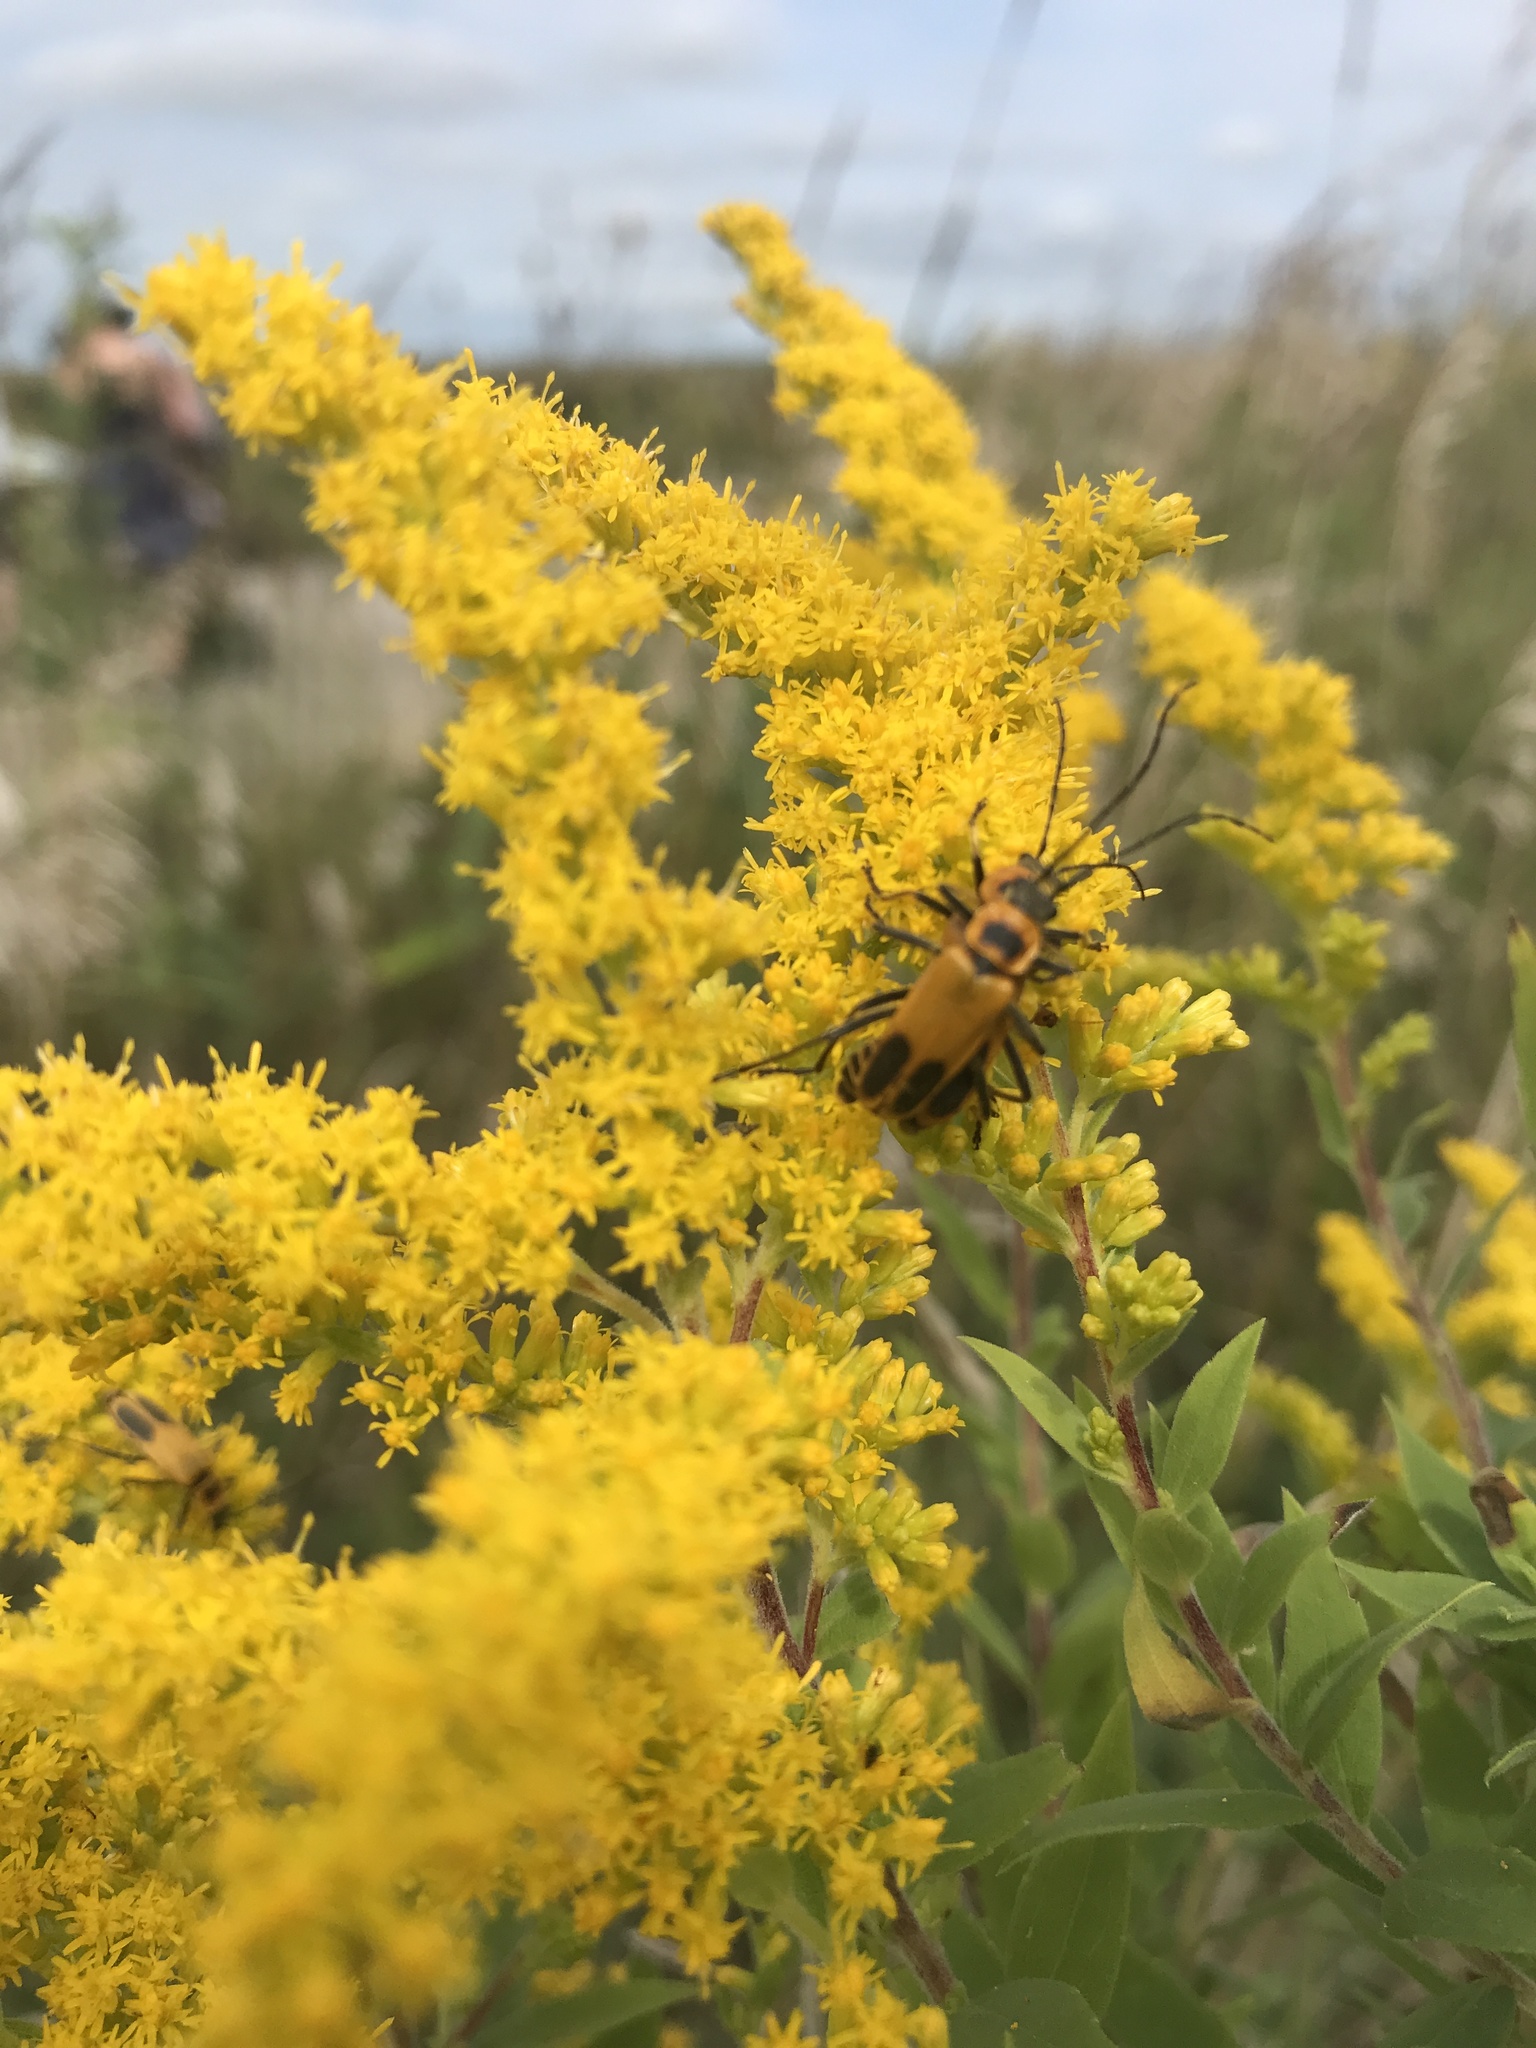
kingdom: Animalia
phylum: Arthropoda
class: Insecta
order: Coleoptera
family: Cantharidae
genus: Chauliognathus
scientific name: Chauliognathus pensylvanicus
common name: Goldenrod soldier beetle
